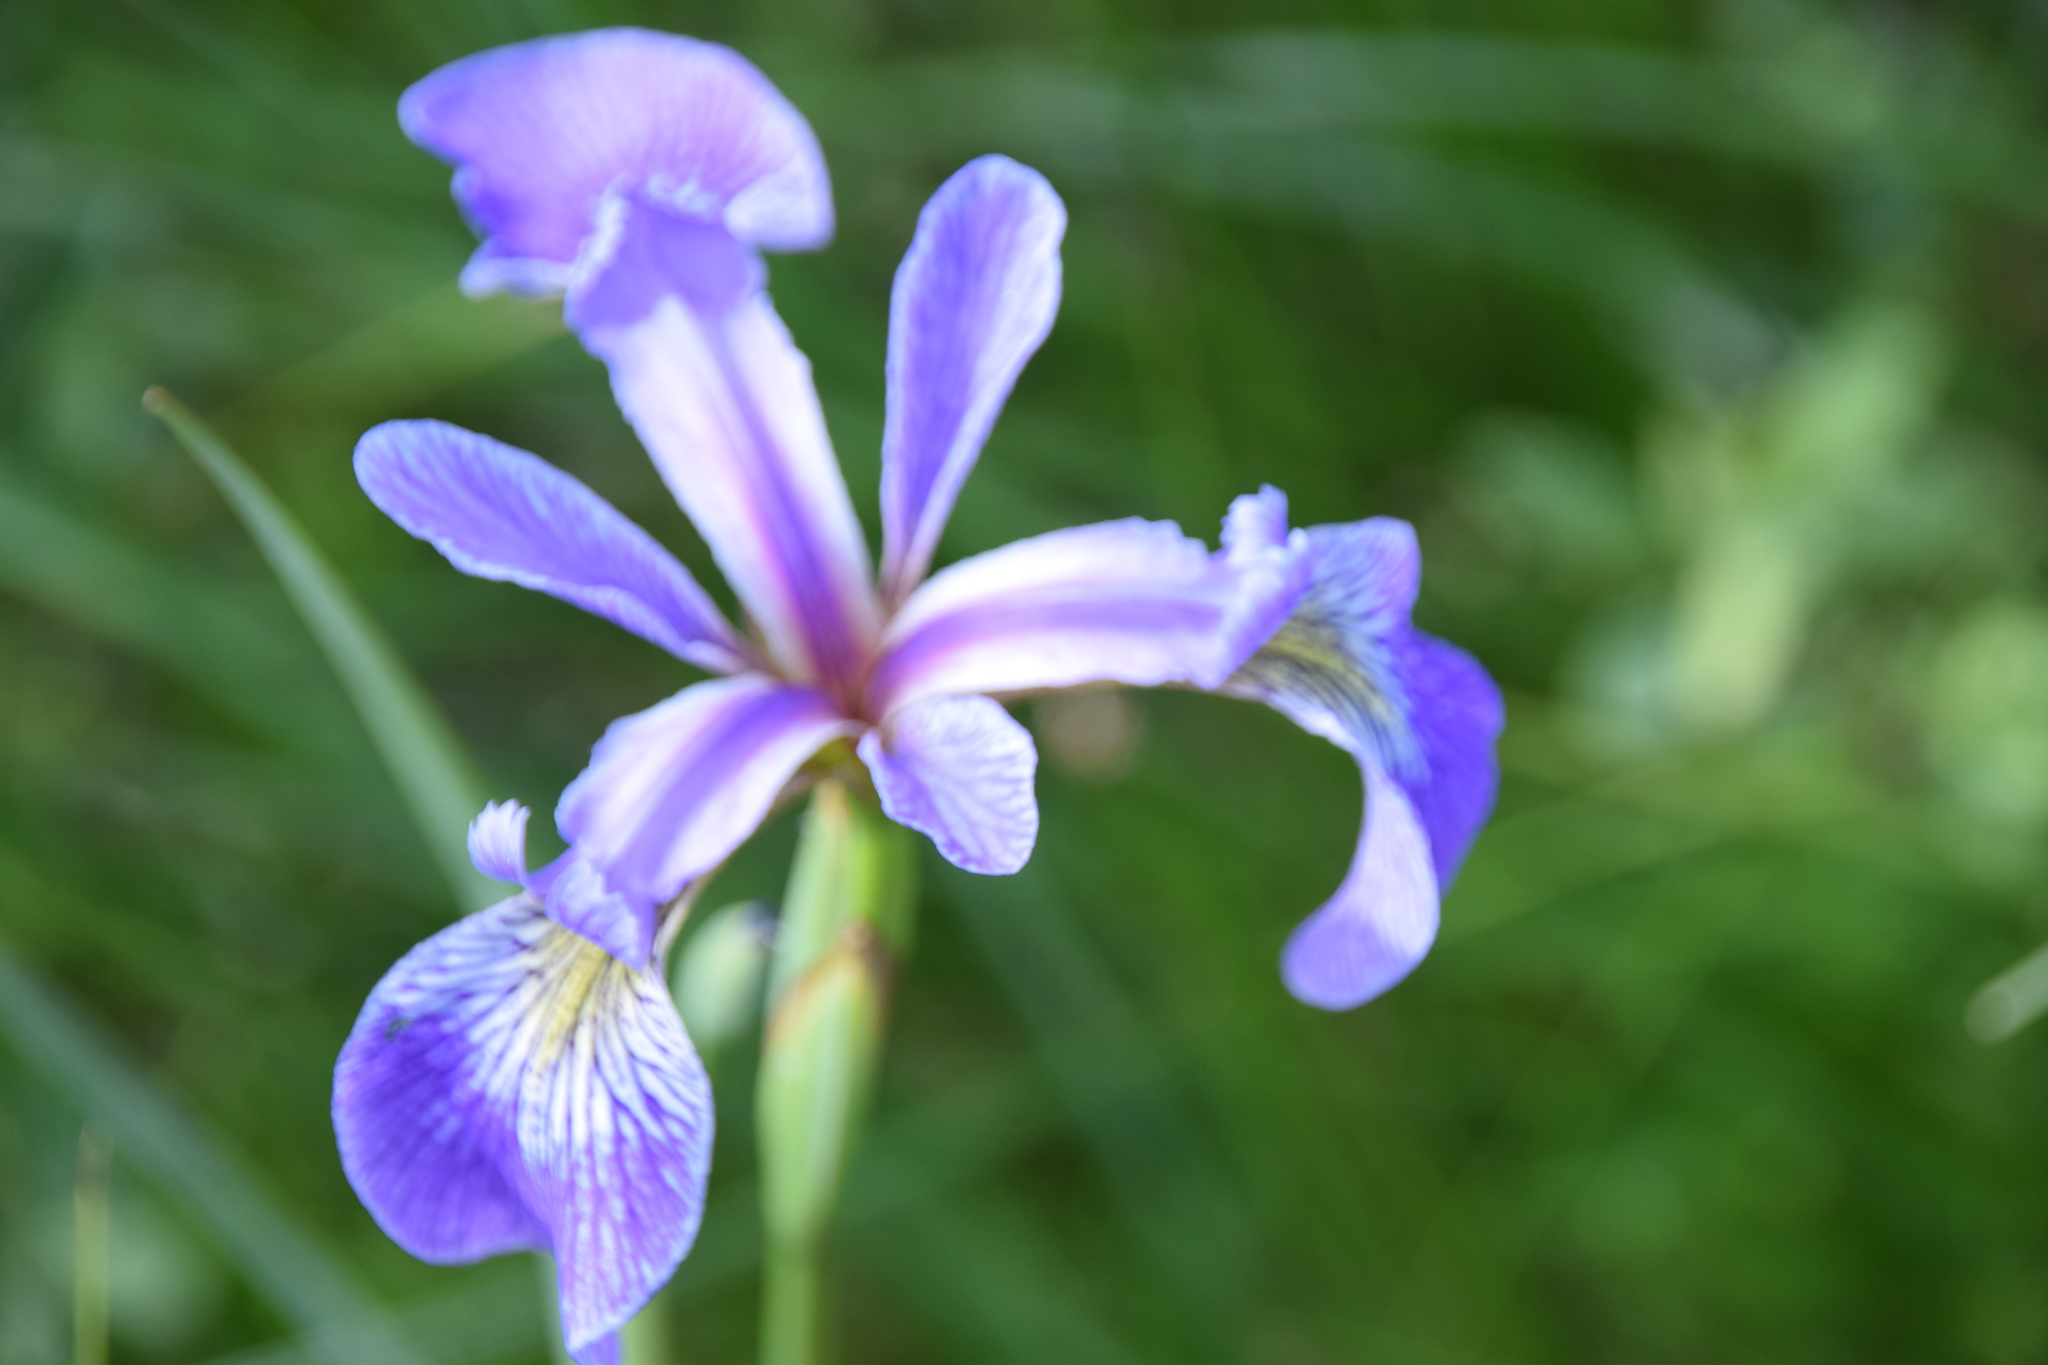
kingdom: Plantae
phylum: Tracheophyta
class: Liliopsida
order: Asparagales
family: Iridaceae
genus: Iris
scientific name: Iris versicolor
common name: Purple iris
